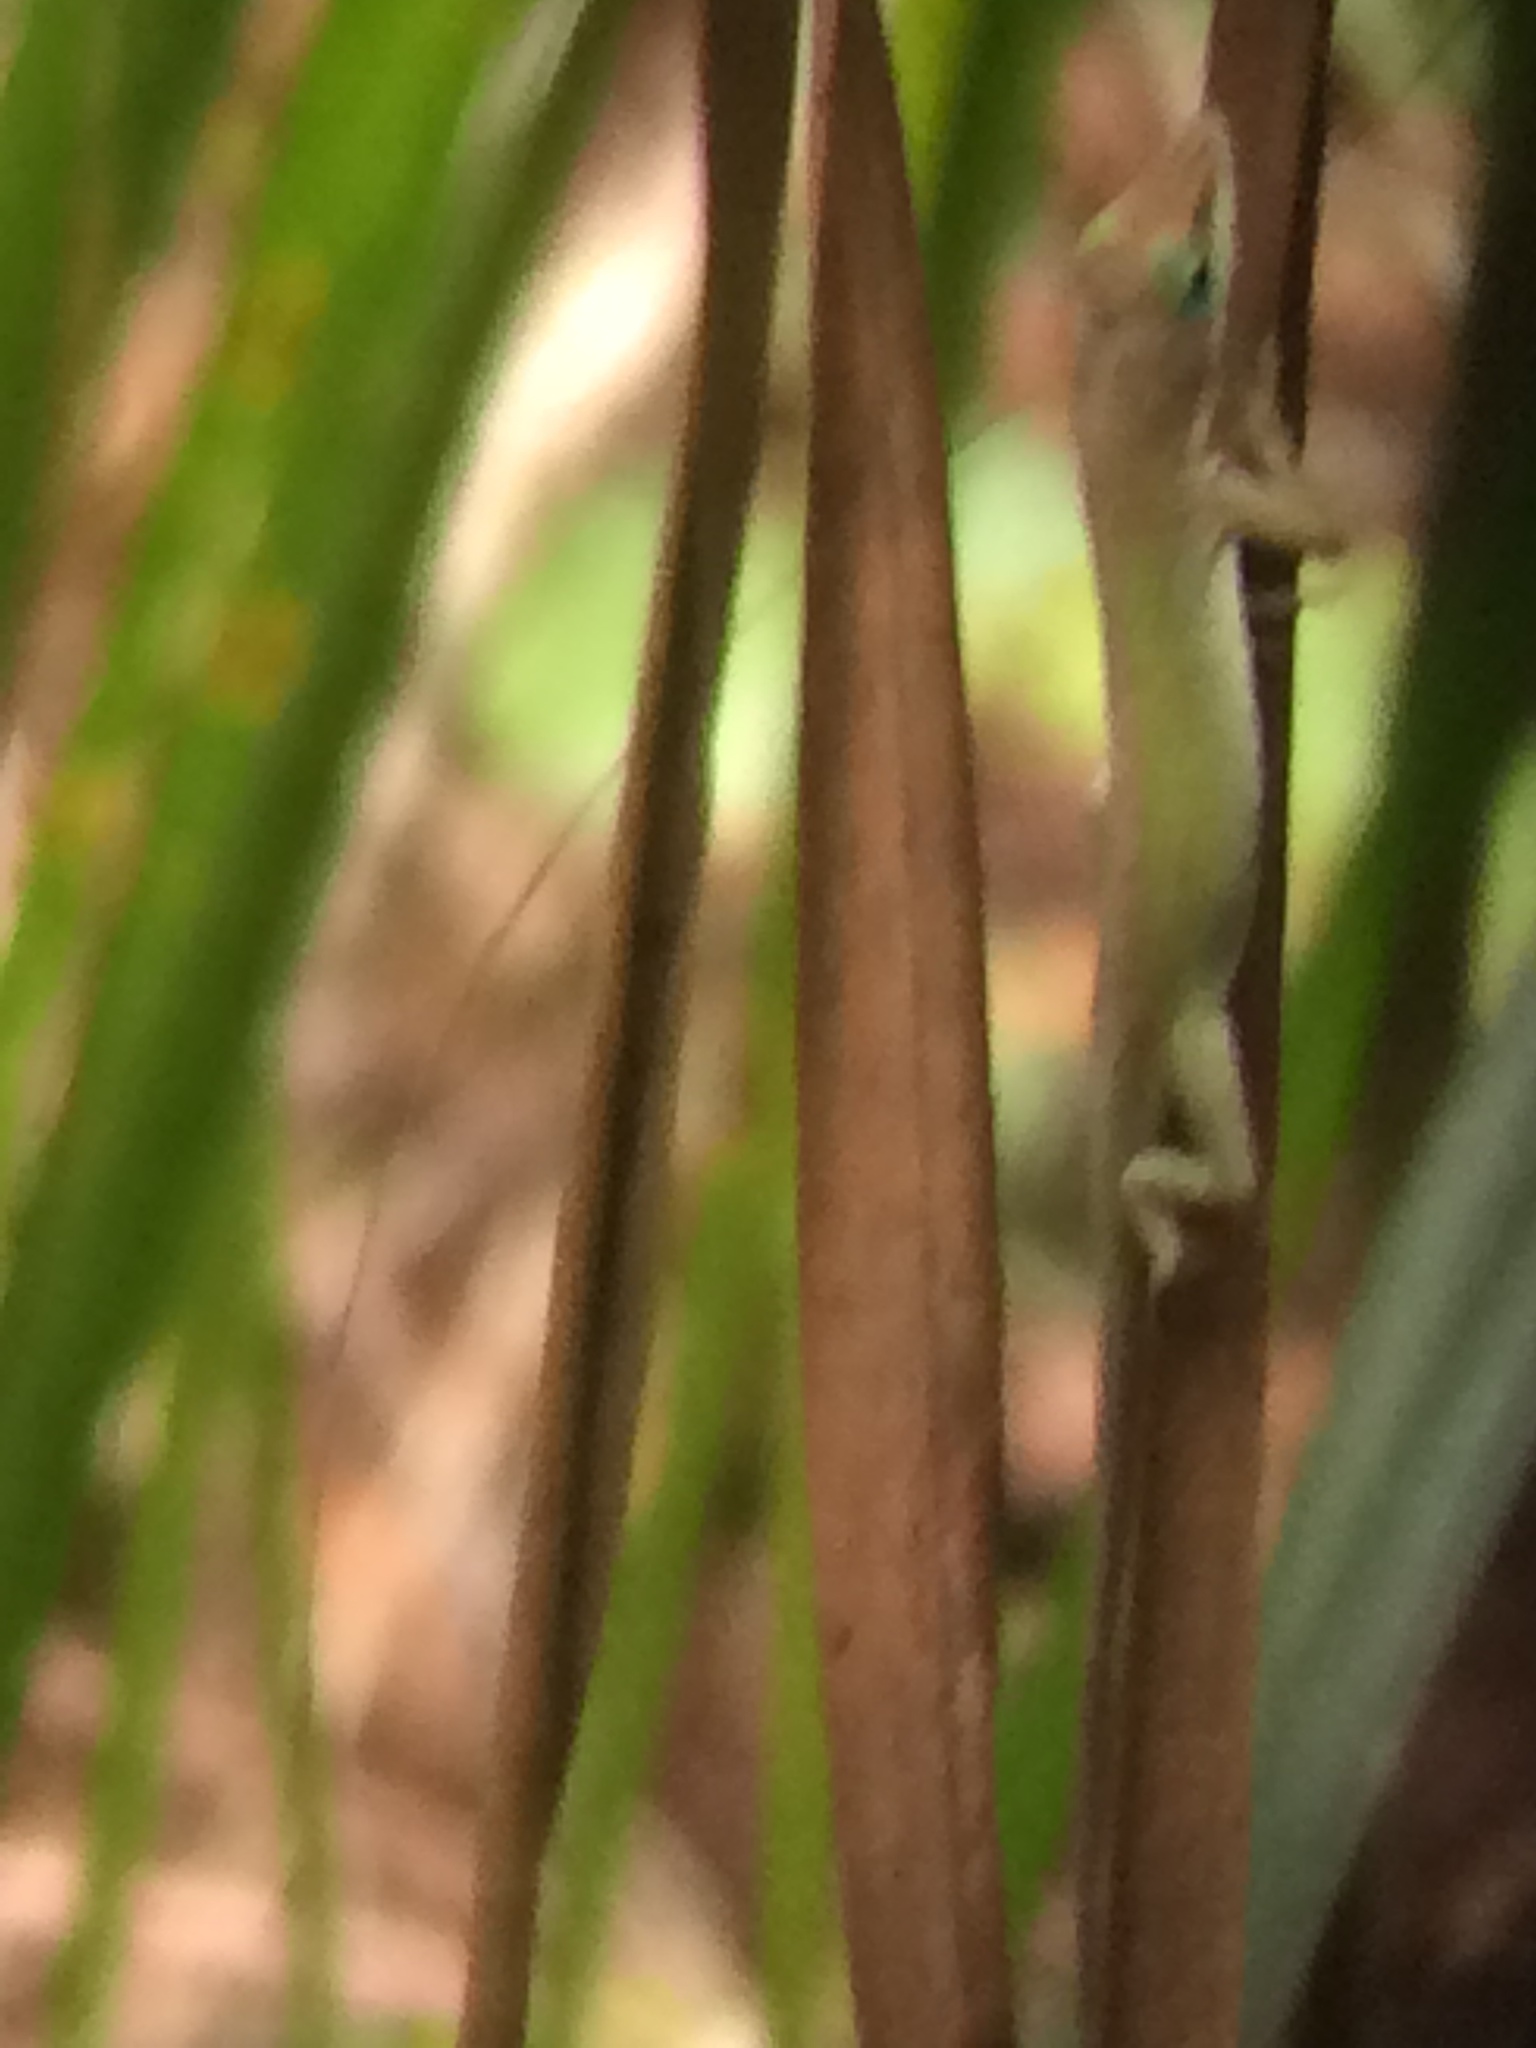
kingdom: Animalia
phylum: Chordata
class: Squamata
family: Dactyloidae
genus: Anolis
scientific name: Anolis carolinensis
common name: Green anole
